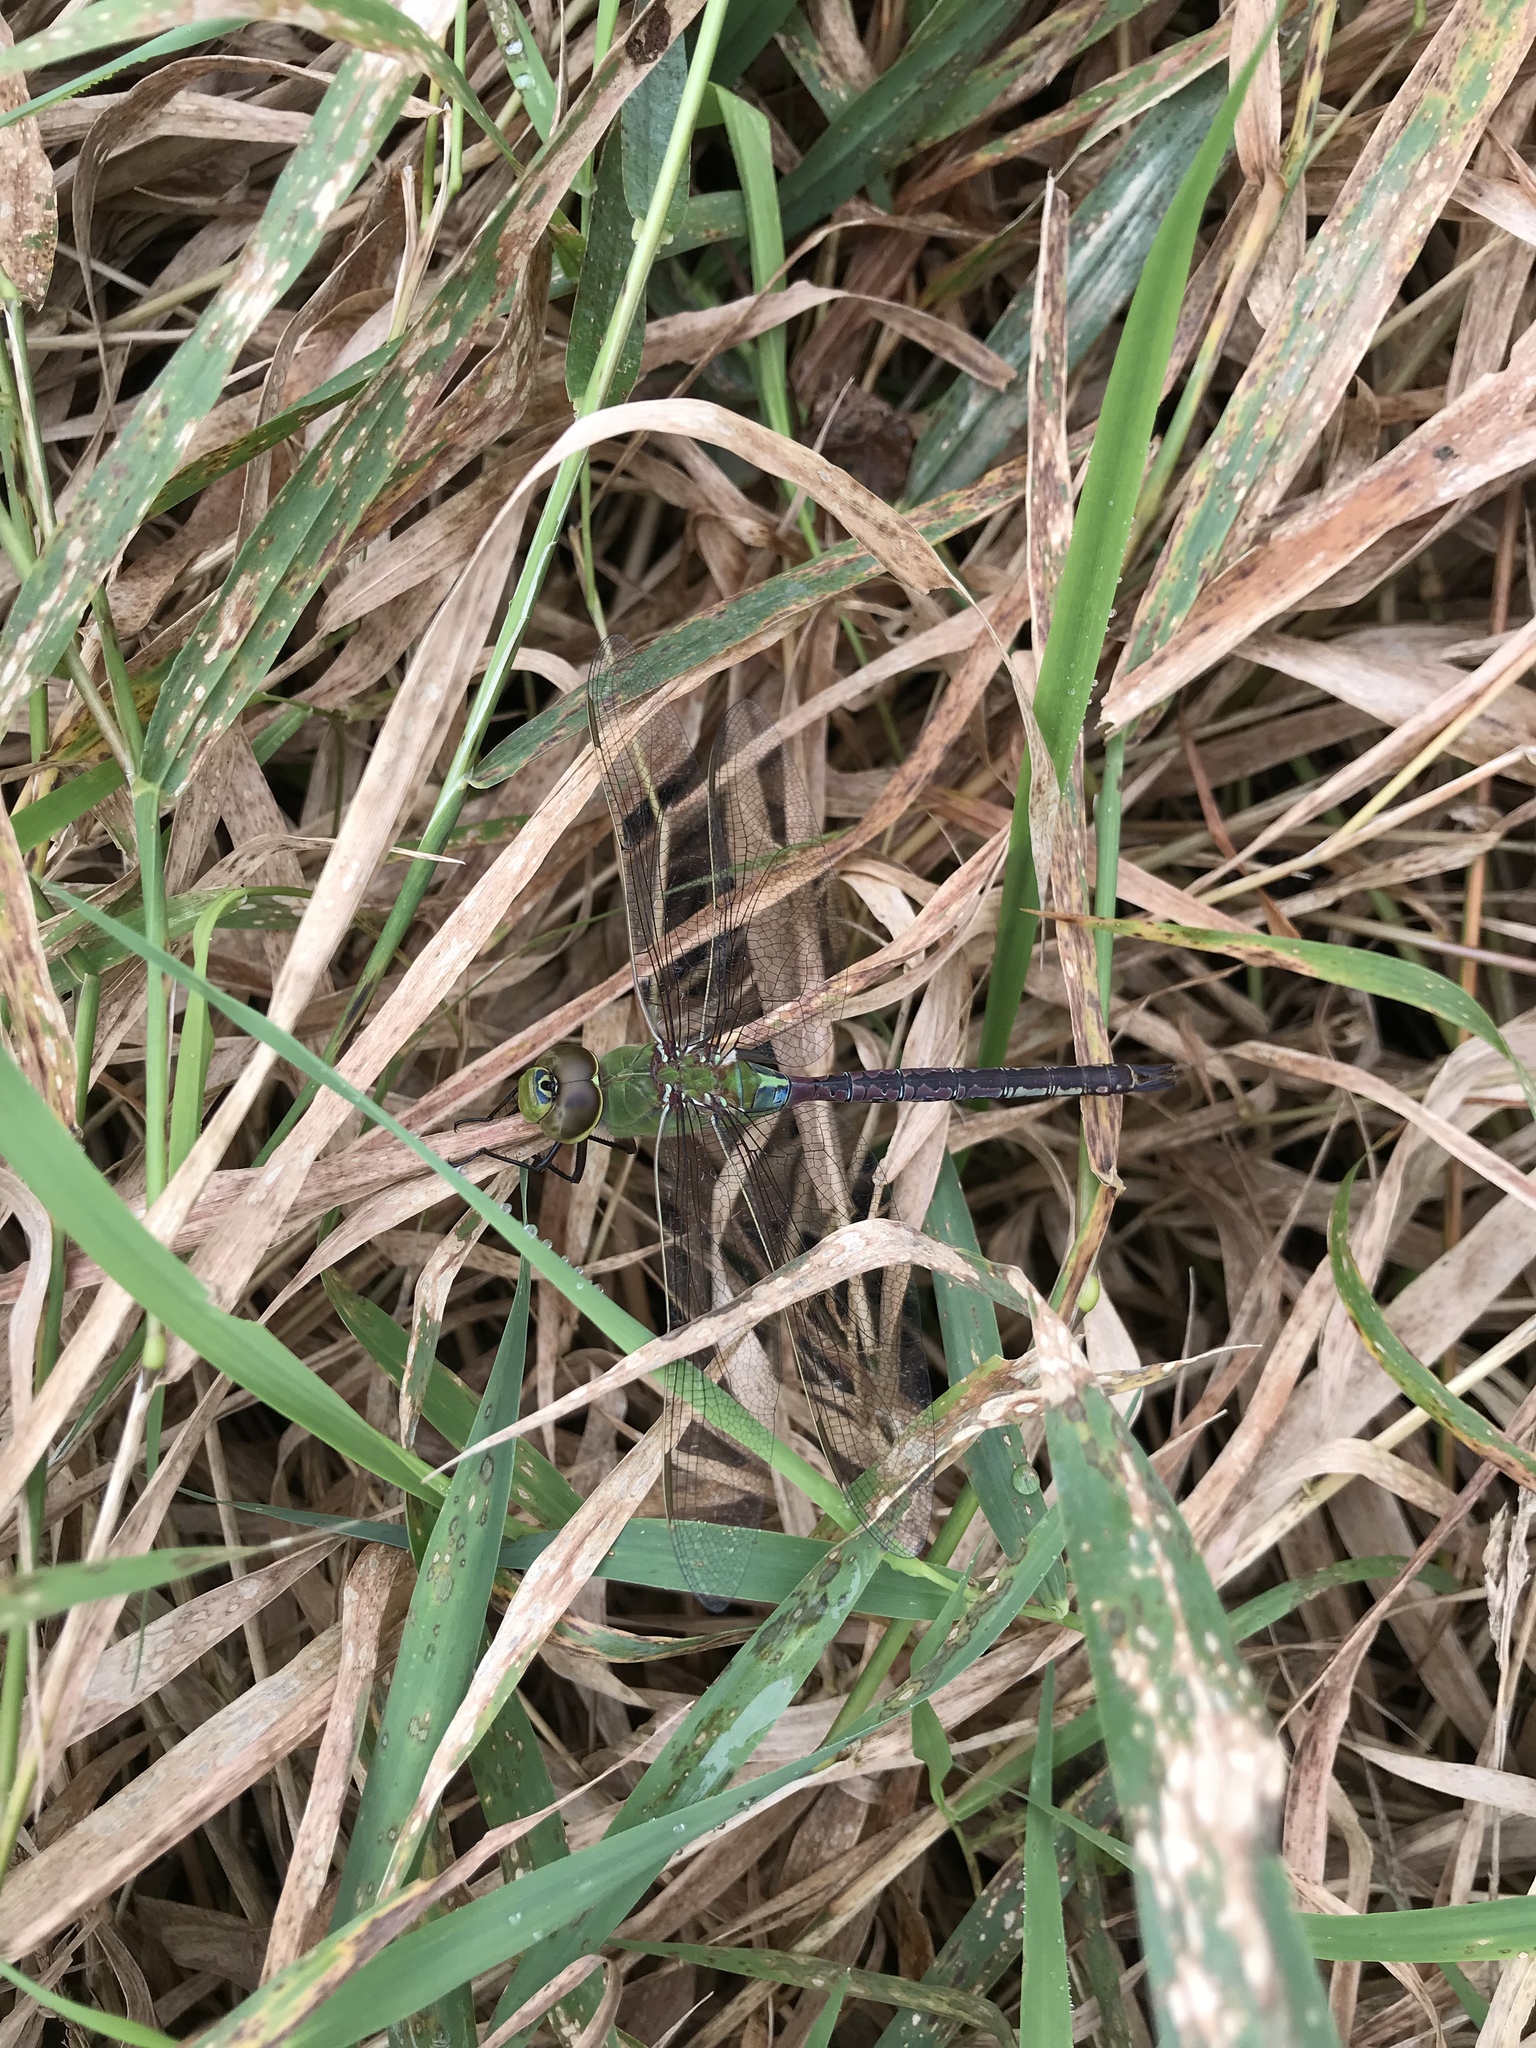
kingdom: Animalia
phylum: Arthropoda
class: Insecta
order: Odonata
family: Aeshnidae
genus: Anax
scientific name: Anax junius
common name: Common green darner
